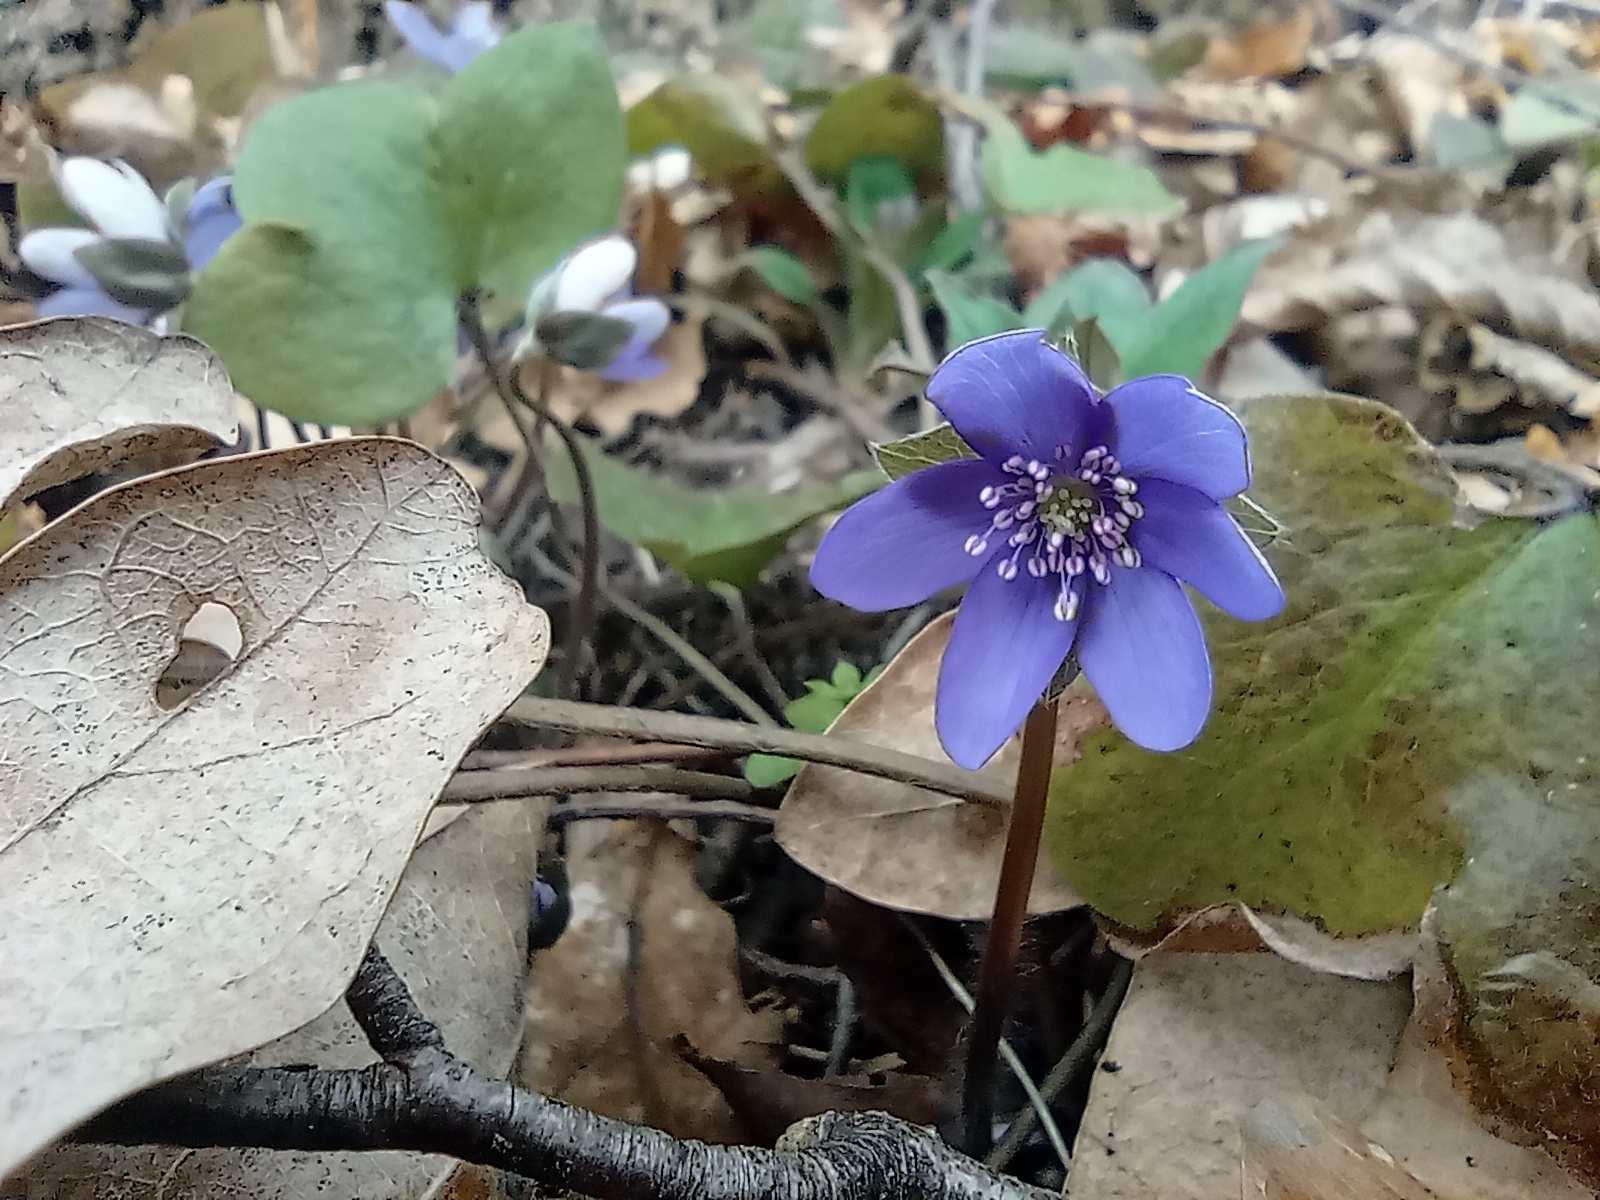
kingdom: Plantae
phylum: Tracheophyta
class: Magnoliopsida
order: Ranunculales
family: Ranunculaceae
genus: Hepatica
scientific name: Hepatica nobilis
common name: Liverleaf
